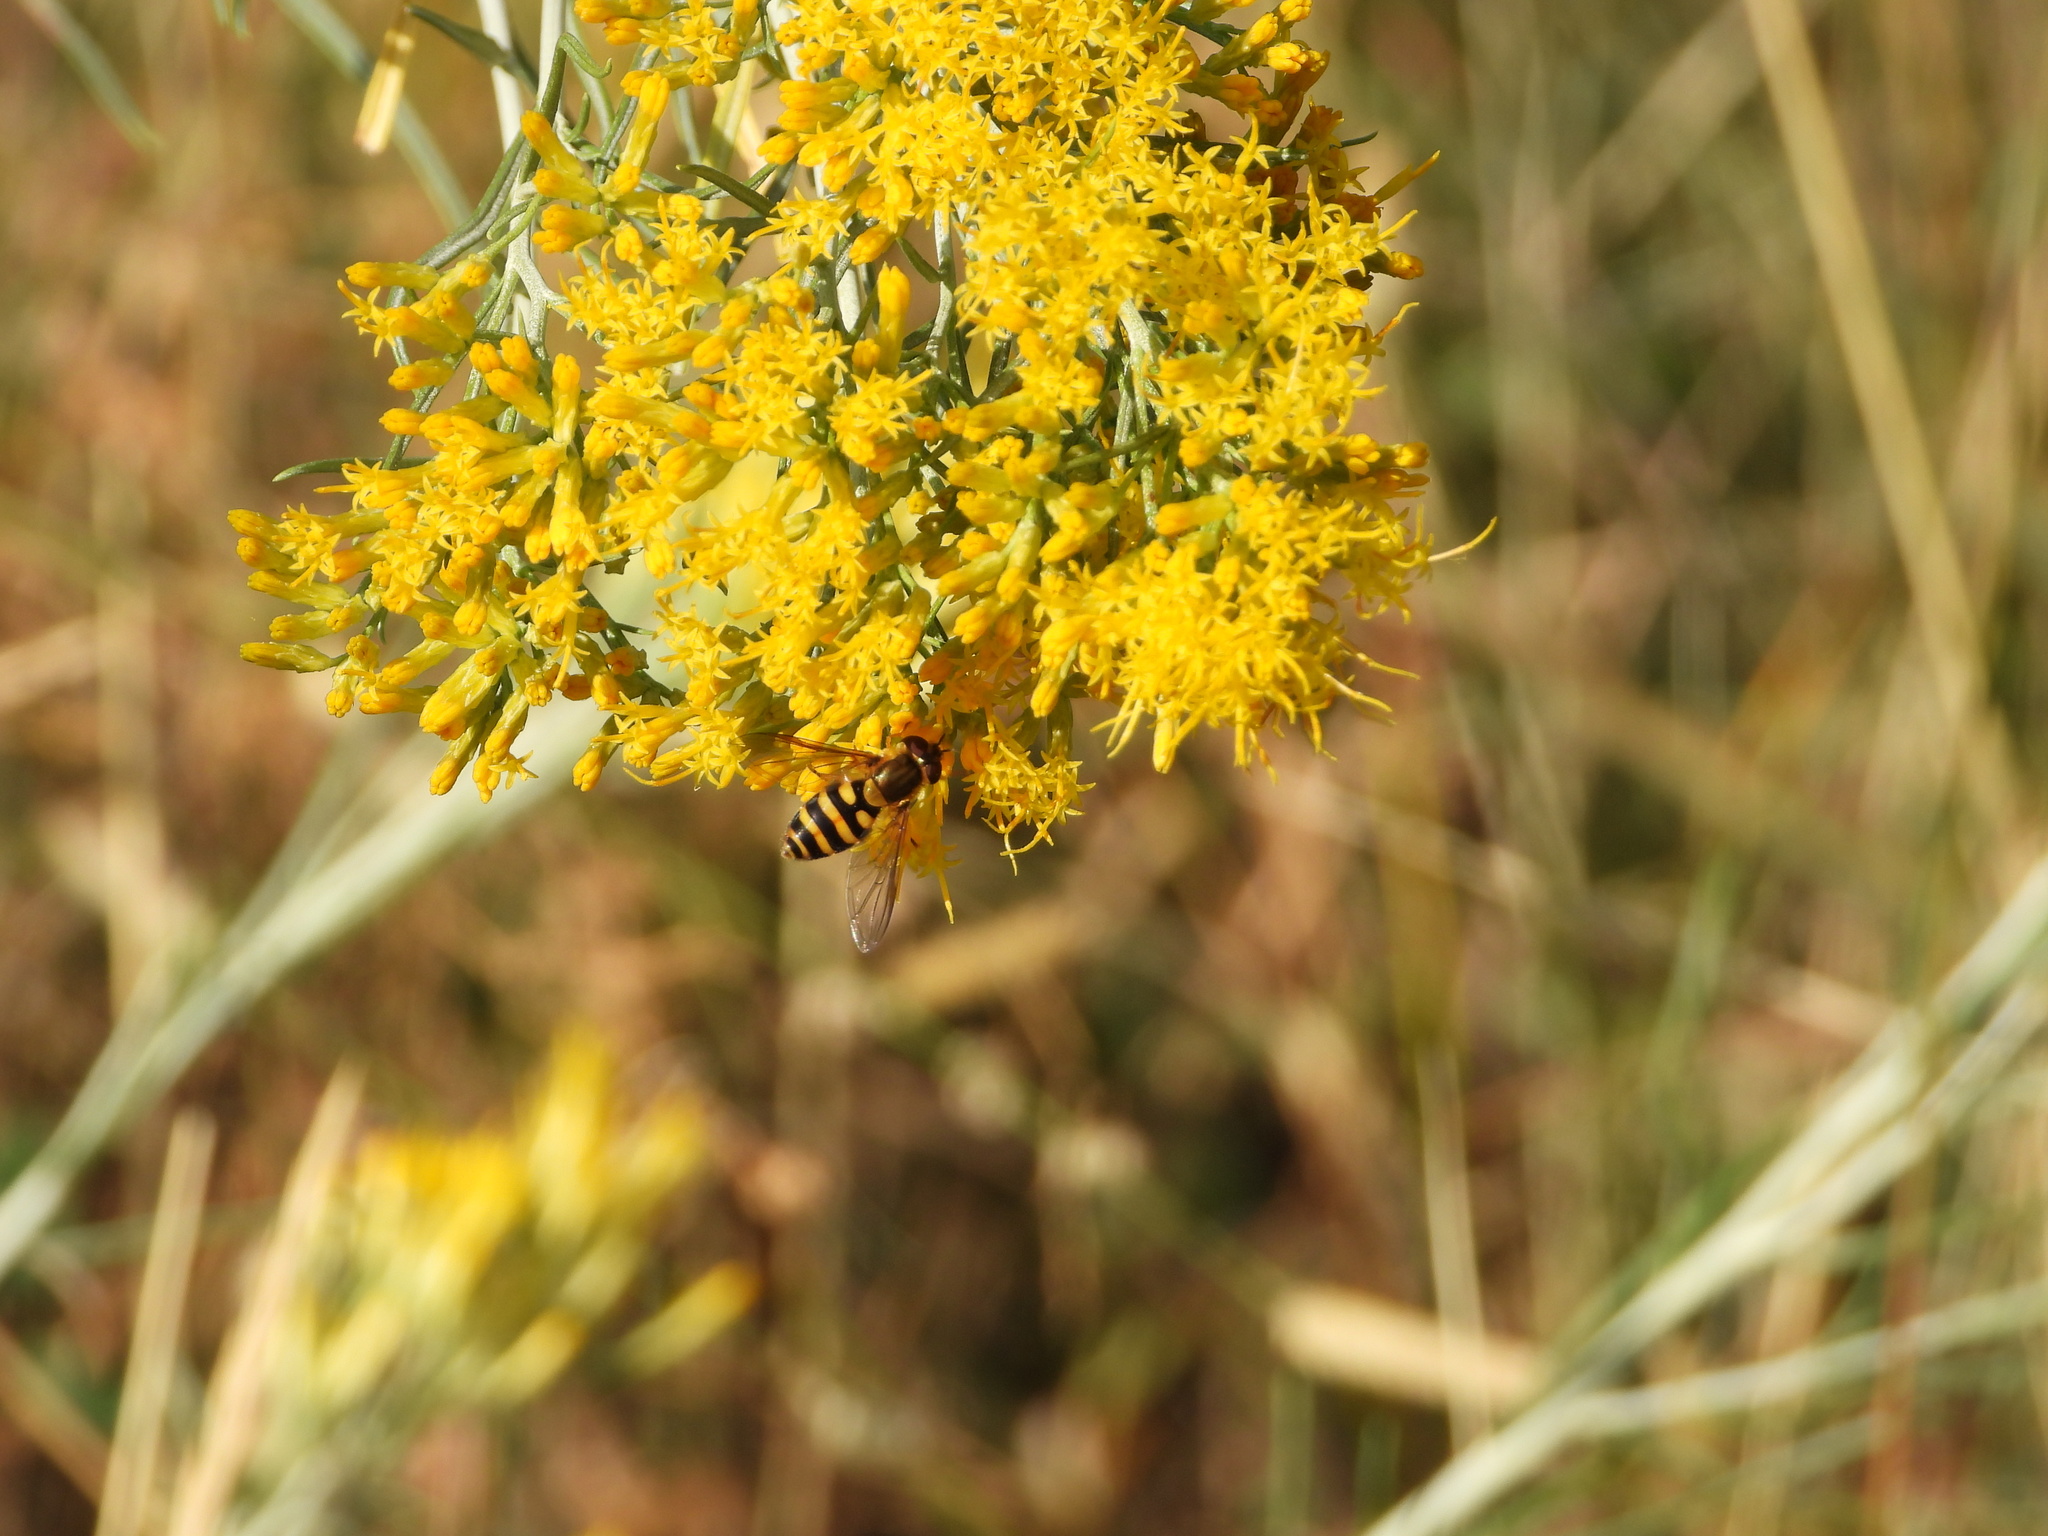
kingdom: Animalia
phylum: Arthropoda
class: Insecta
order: Diptera
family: Syrphidae
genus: Syrphus
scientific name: Syrphus
